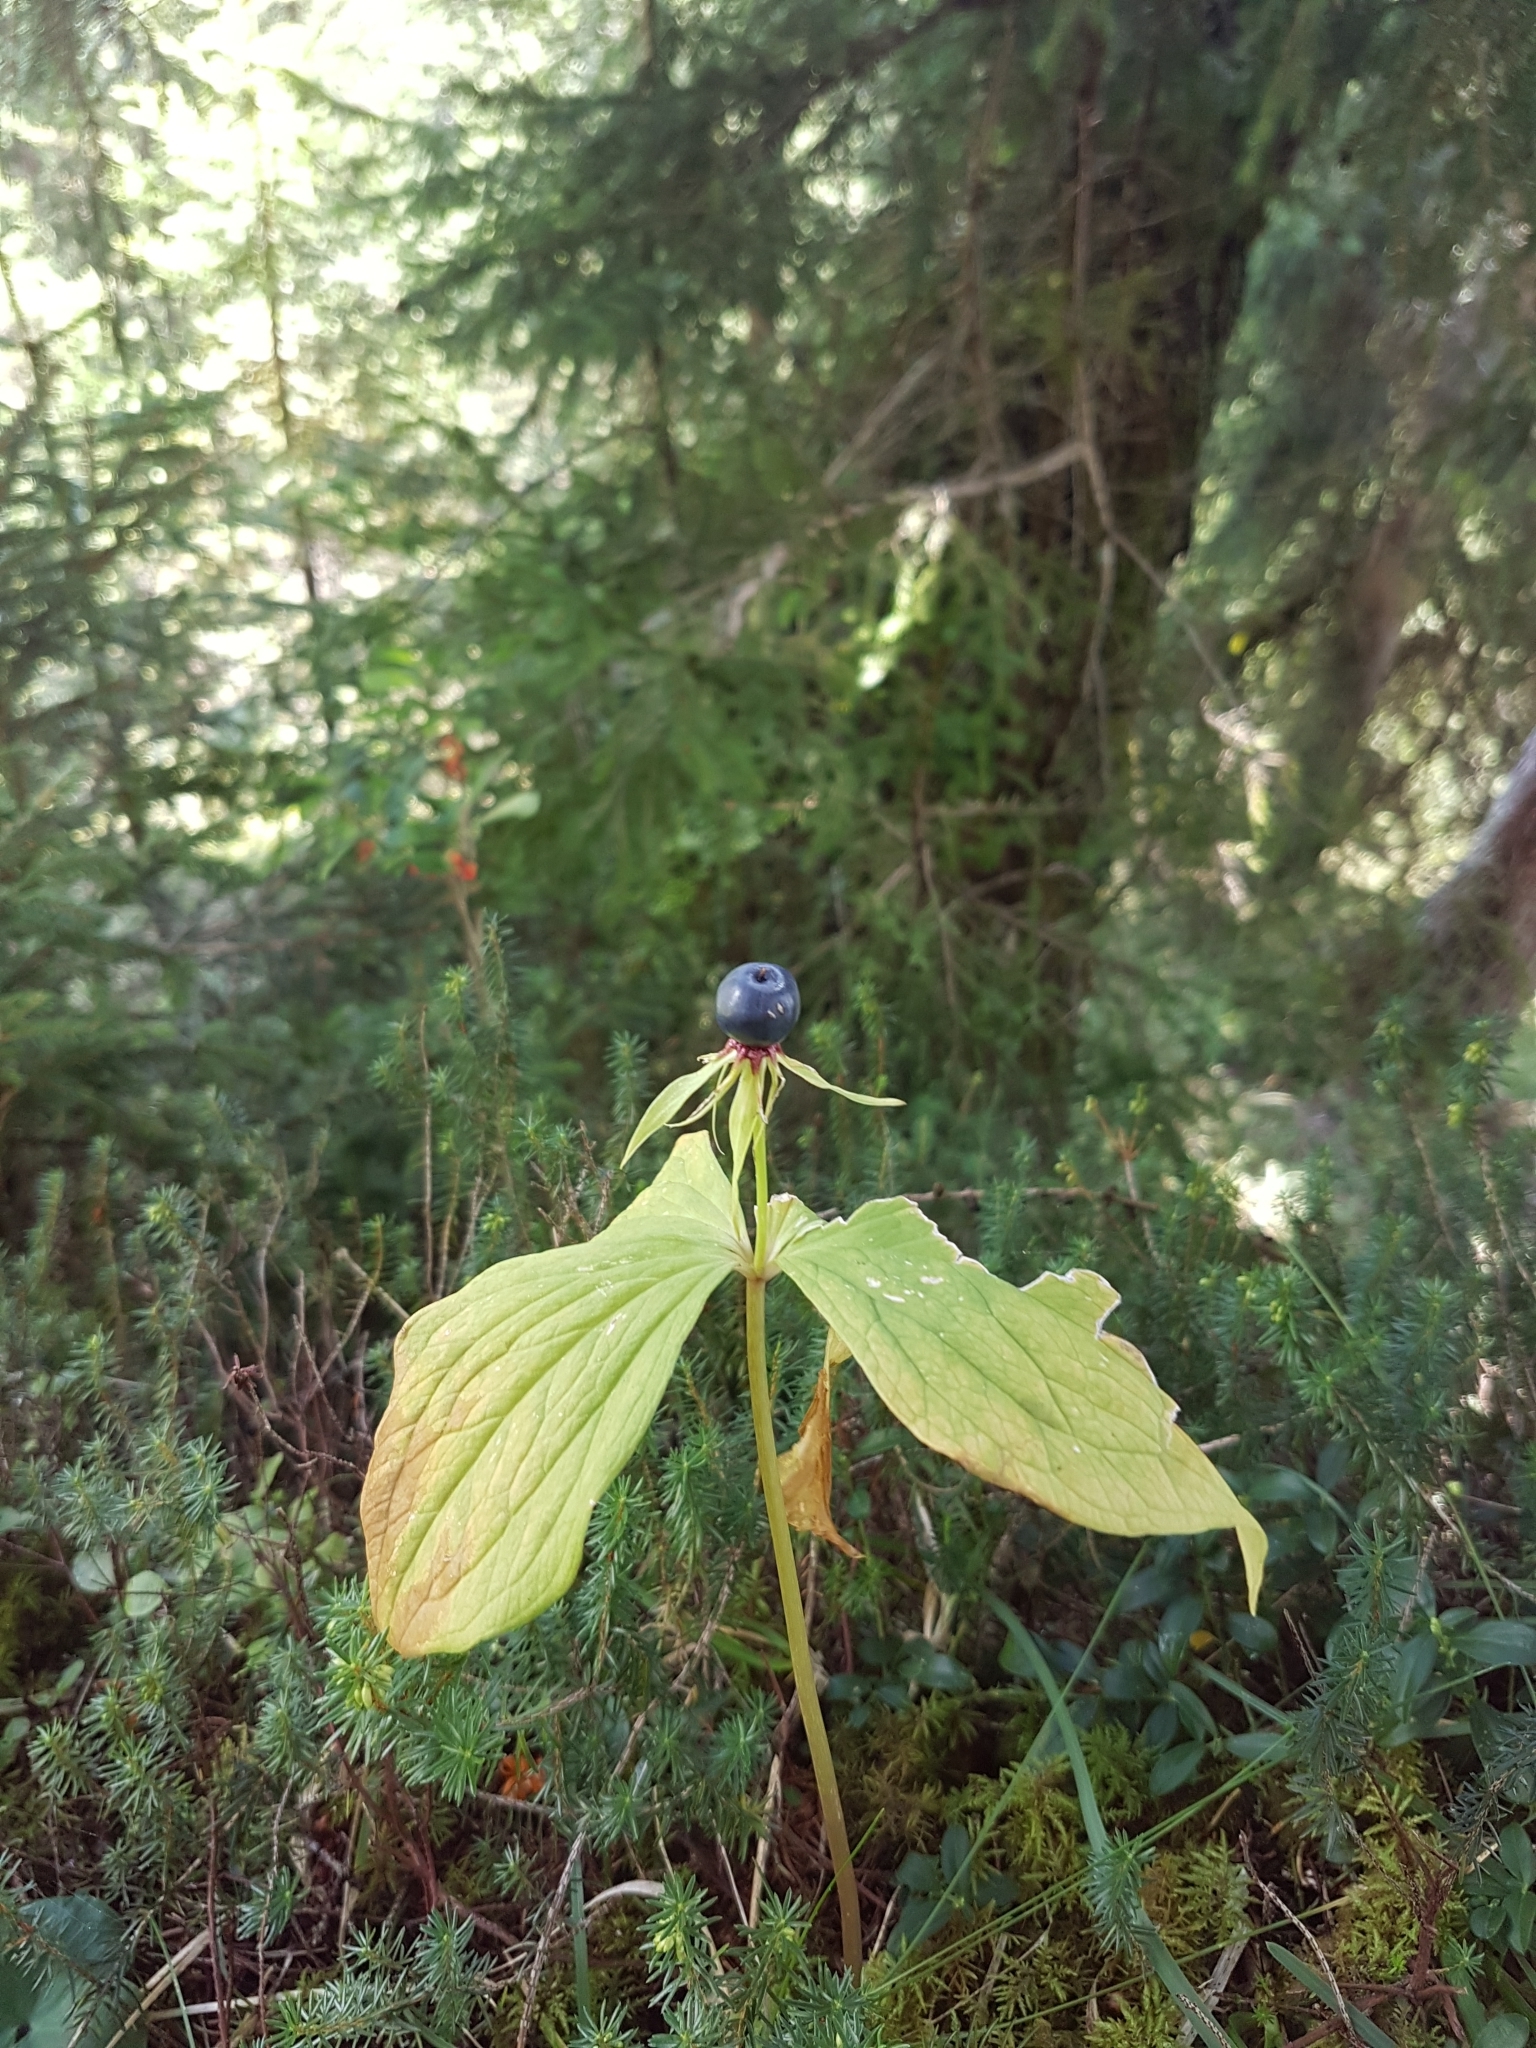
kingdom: Plantae
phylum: Tracheophyta
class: Liliopsida
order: Liliales
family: Melanthiaceae
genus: Paris
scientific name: Paris quadrifolia
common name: Herb-paris
